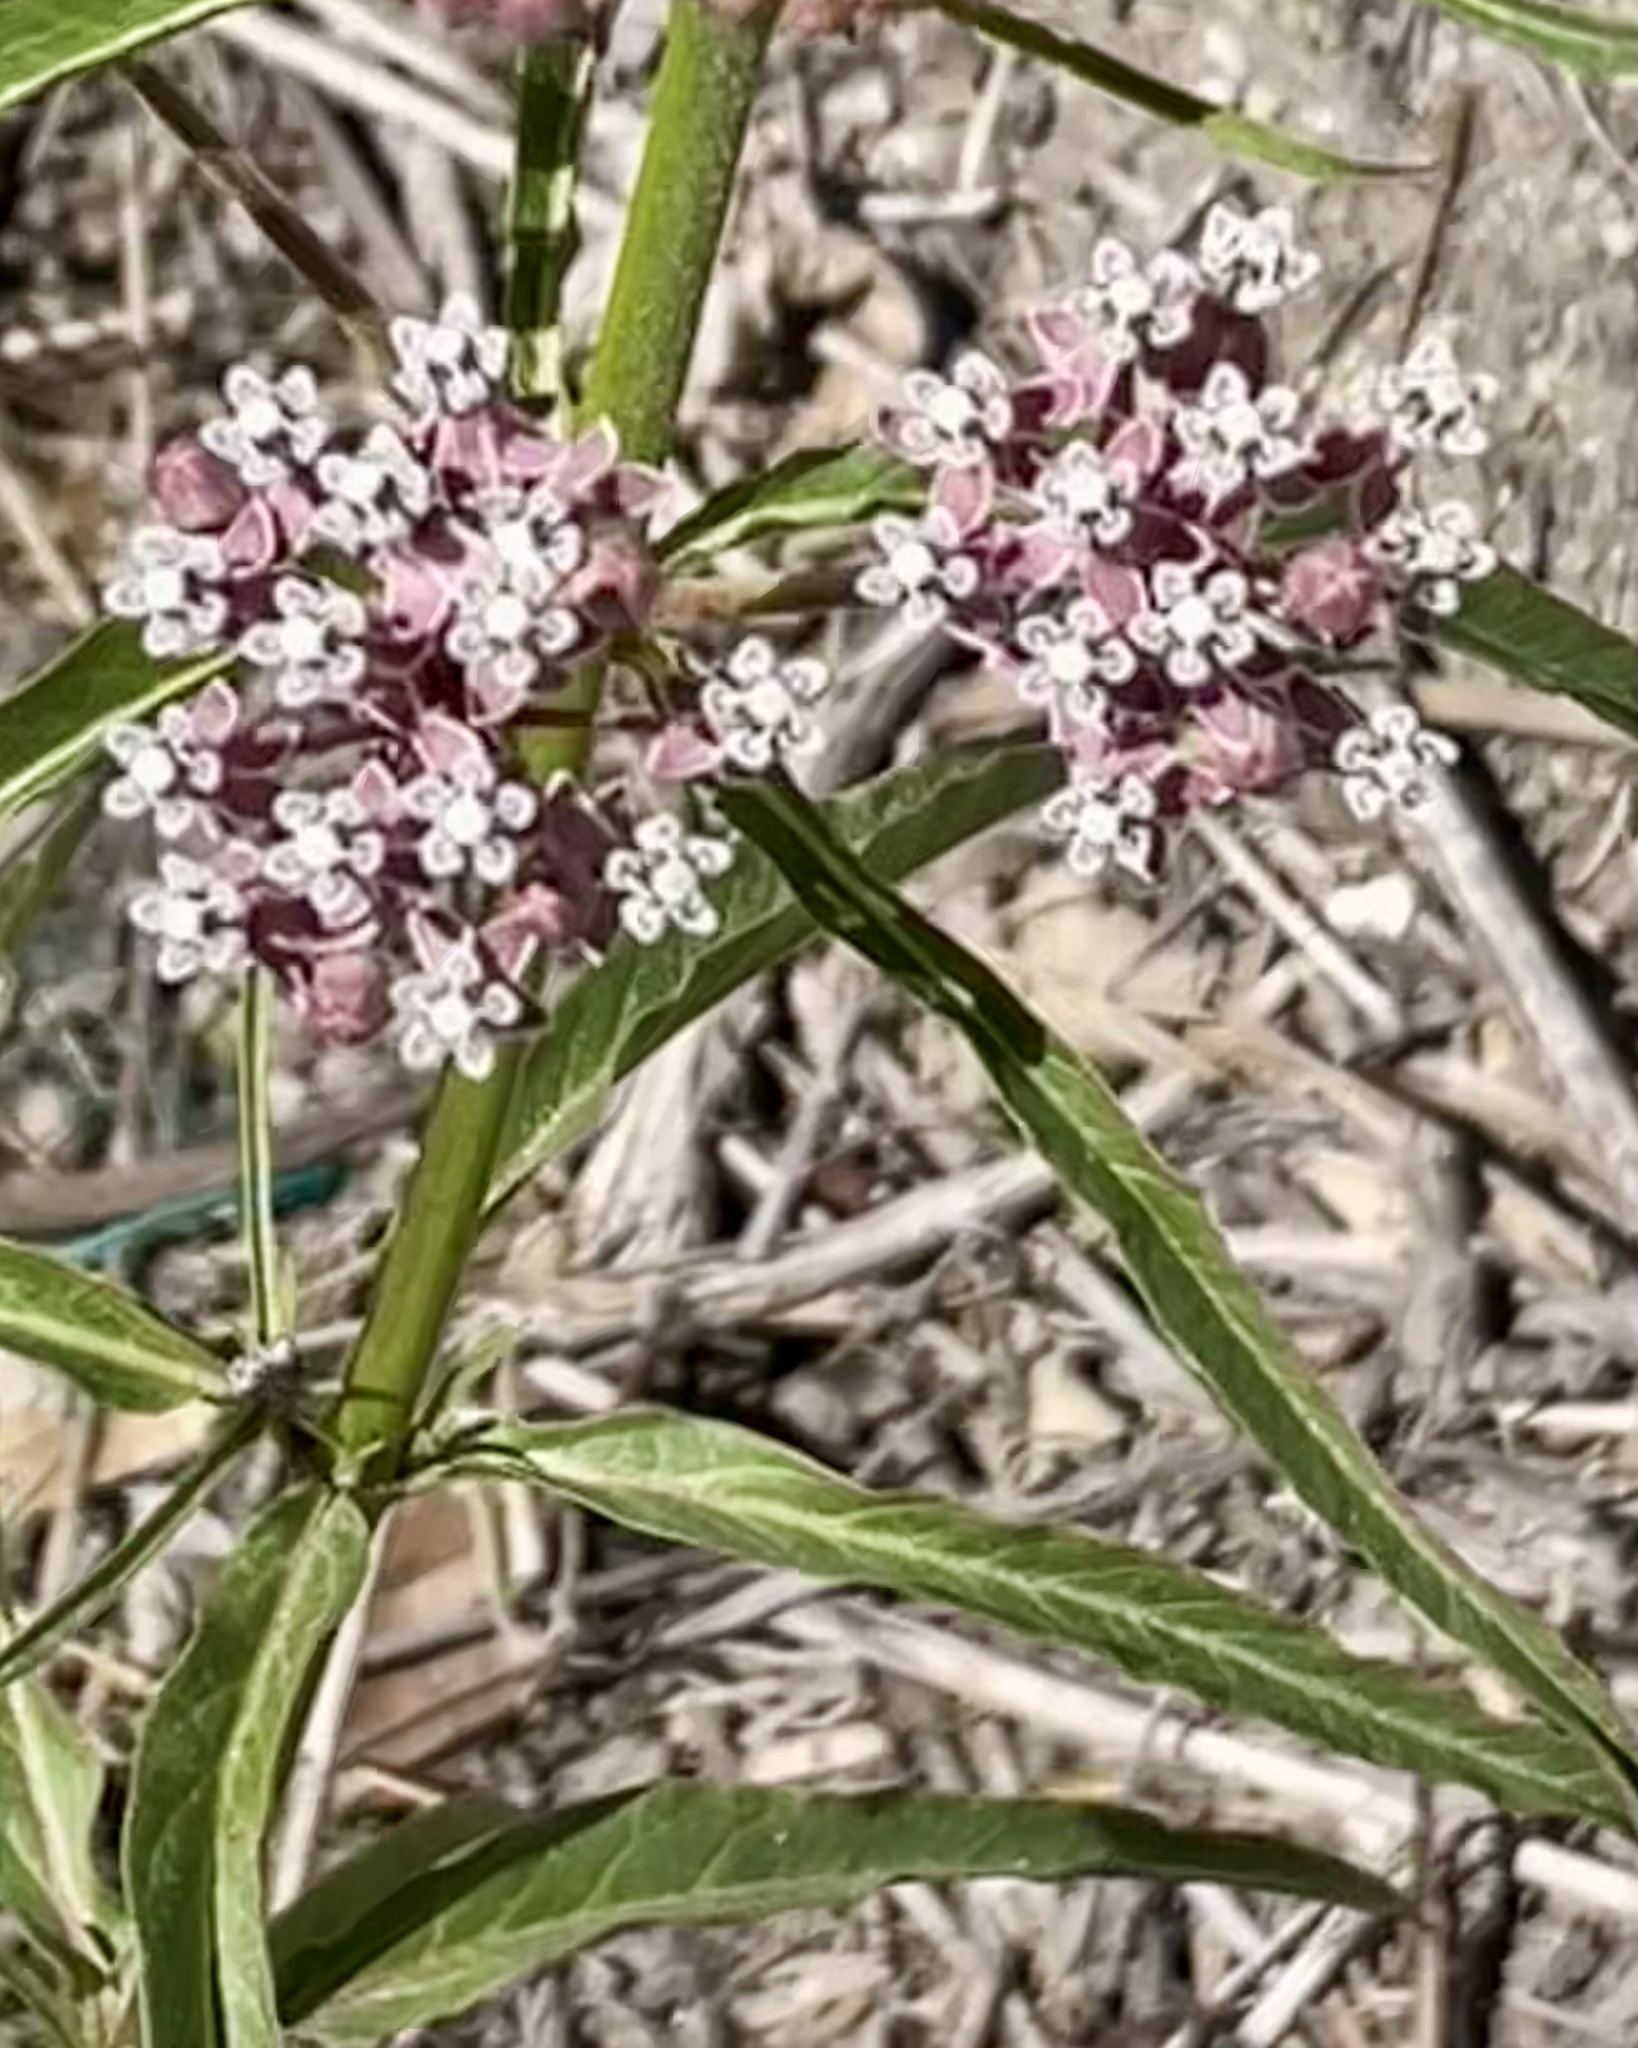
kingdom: Plantae
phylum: Tracheophyta
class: Magnoliopsida
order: Gentianales
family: Apocynaceae
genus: Asclepias
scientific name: Asclepias fascicularis
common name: Mexican milkweed
